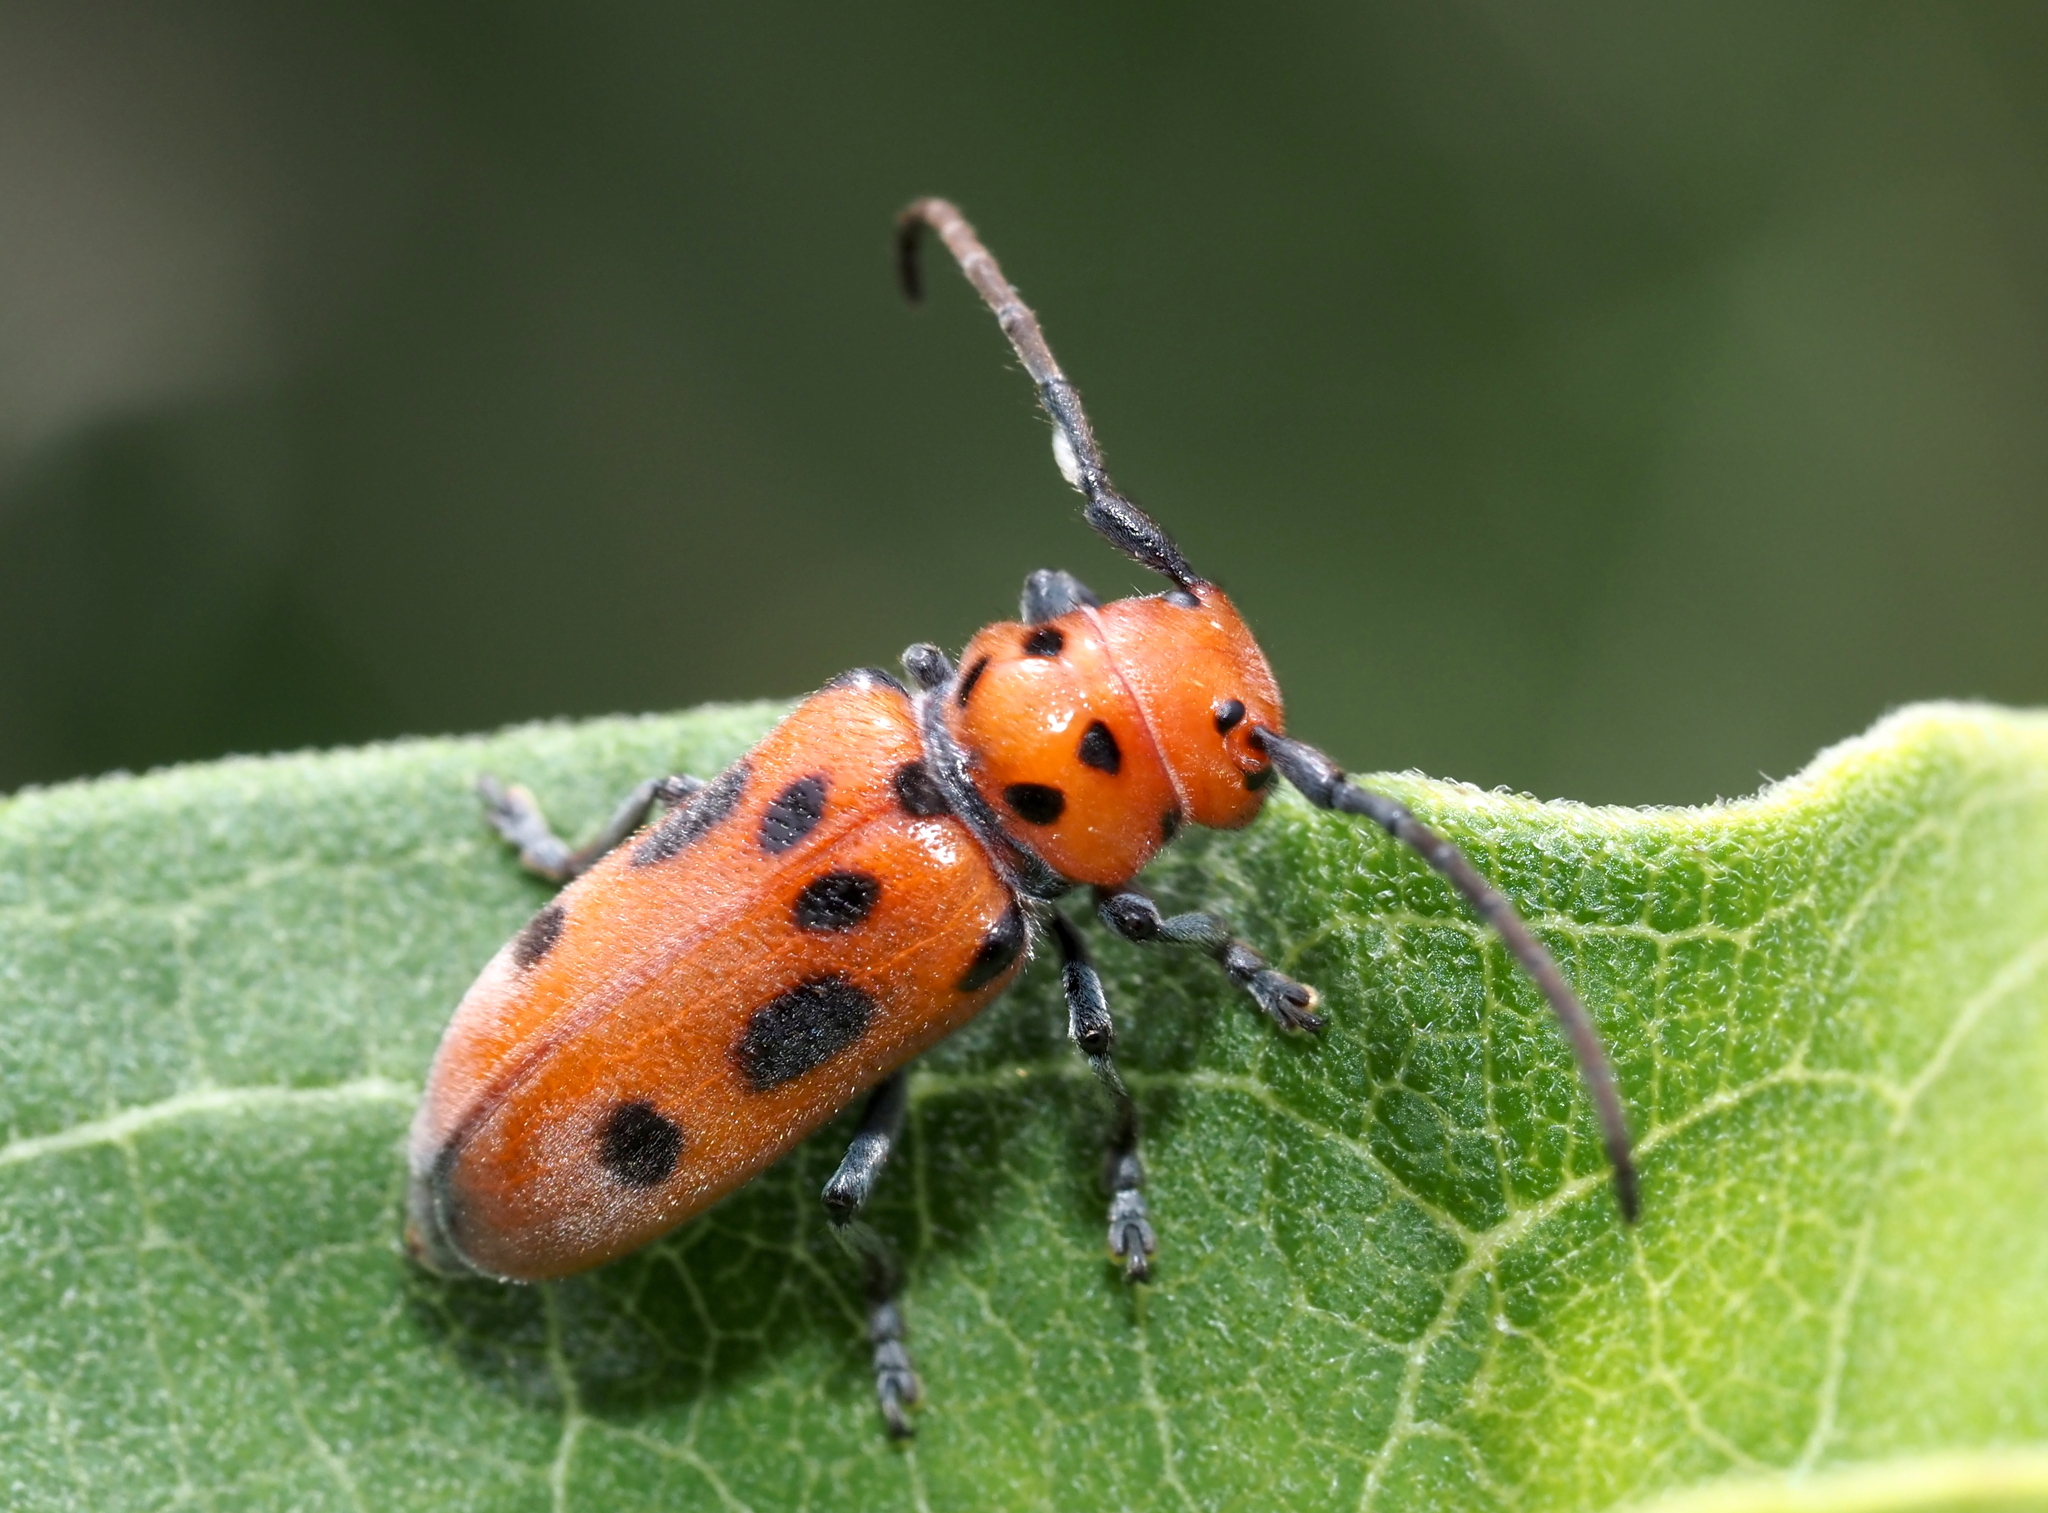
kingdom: Animalia
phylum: Arthropoda
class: Insecta
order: Coleoptera
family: Cerambycidae
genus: Tetraopes
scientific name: Tetraopes tetrophthalmus
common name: Red milkweed beetle
